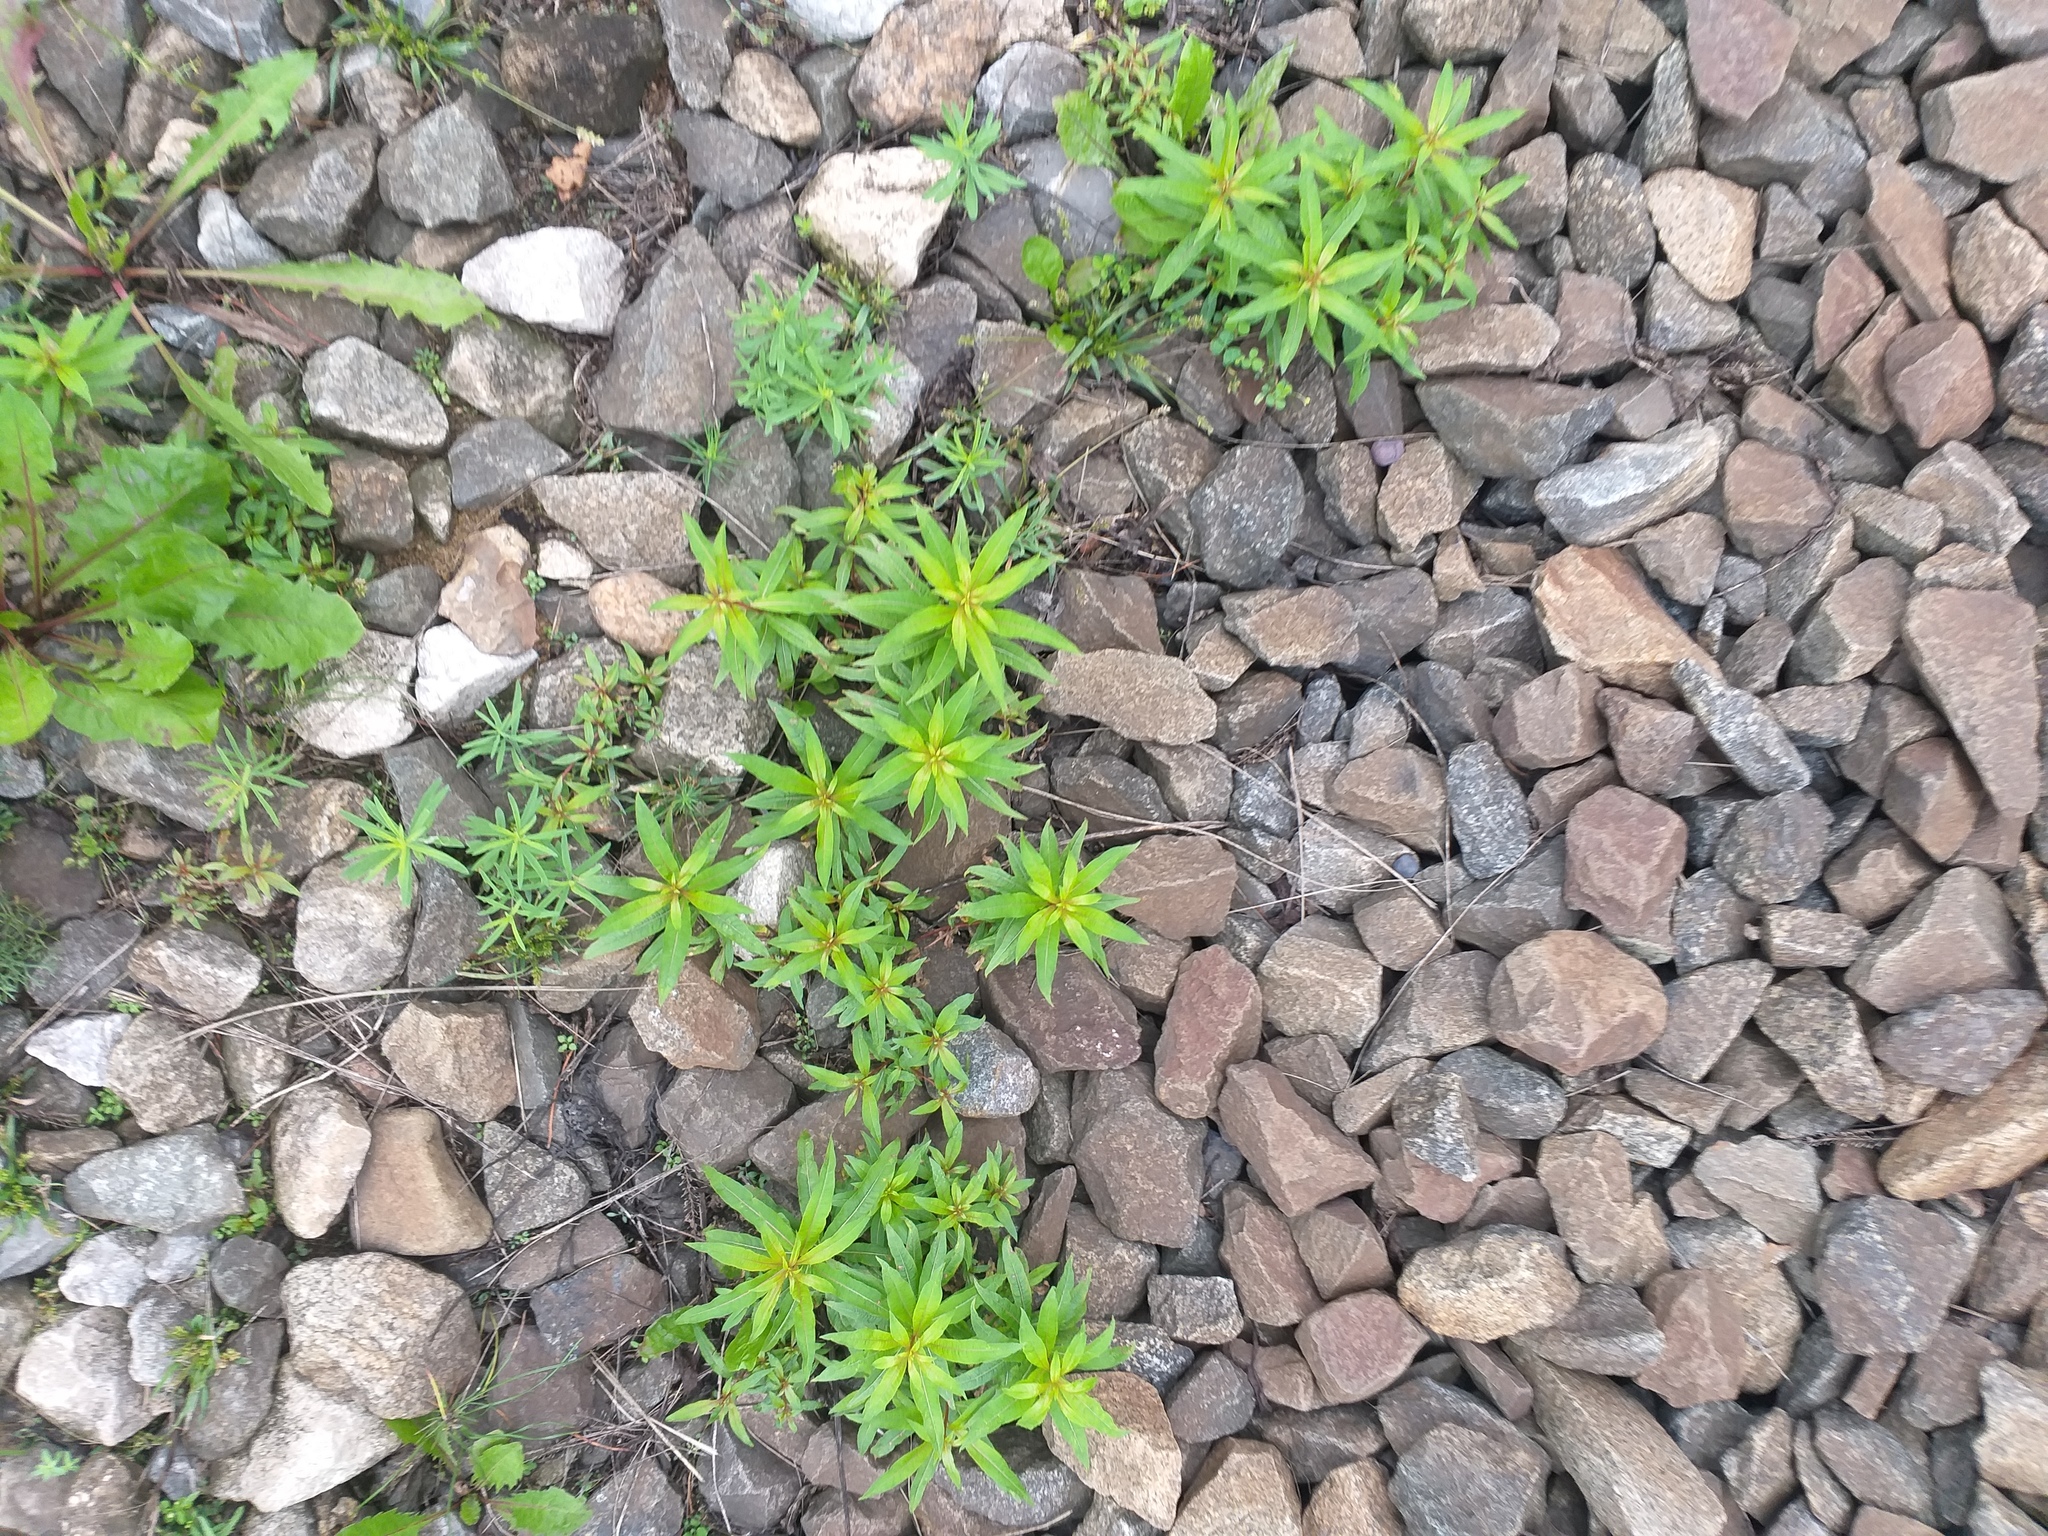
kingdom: Plantae
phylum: Tracheophyta
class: Magnoliopsida
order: Myrtales
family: Onagraceae
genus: Chamaenerion
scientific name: Chamaenerion angustifolium
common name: Fireweed
